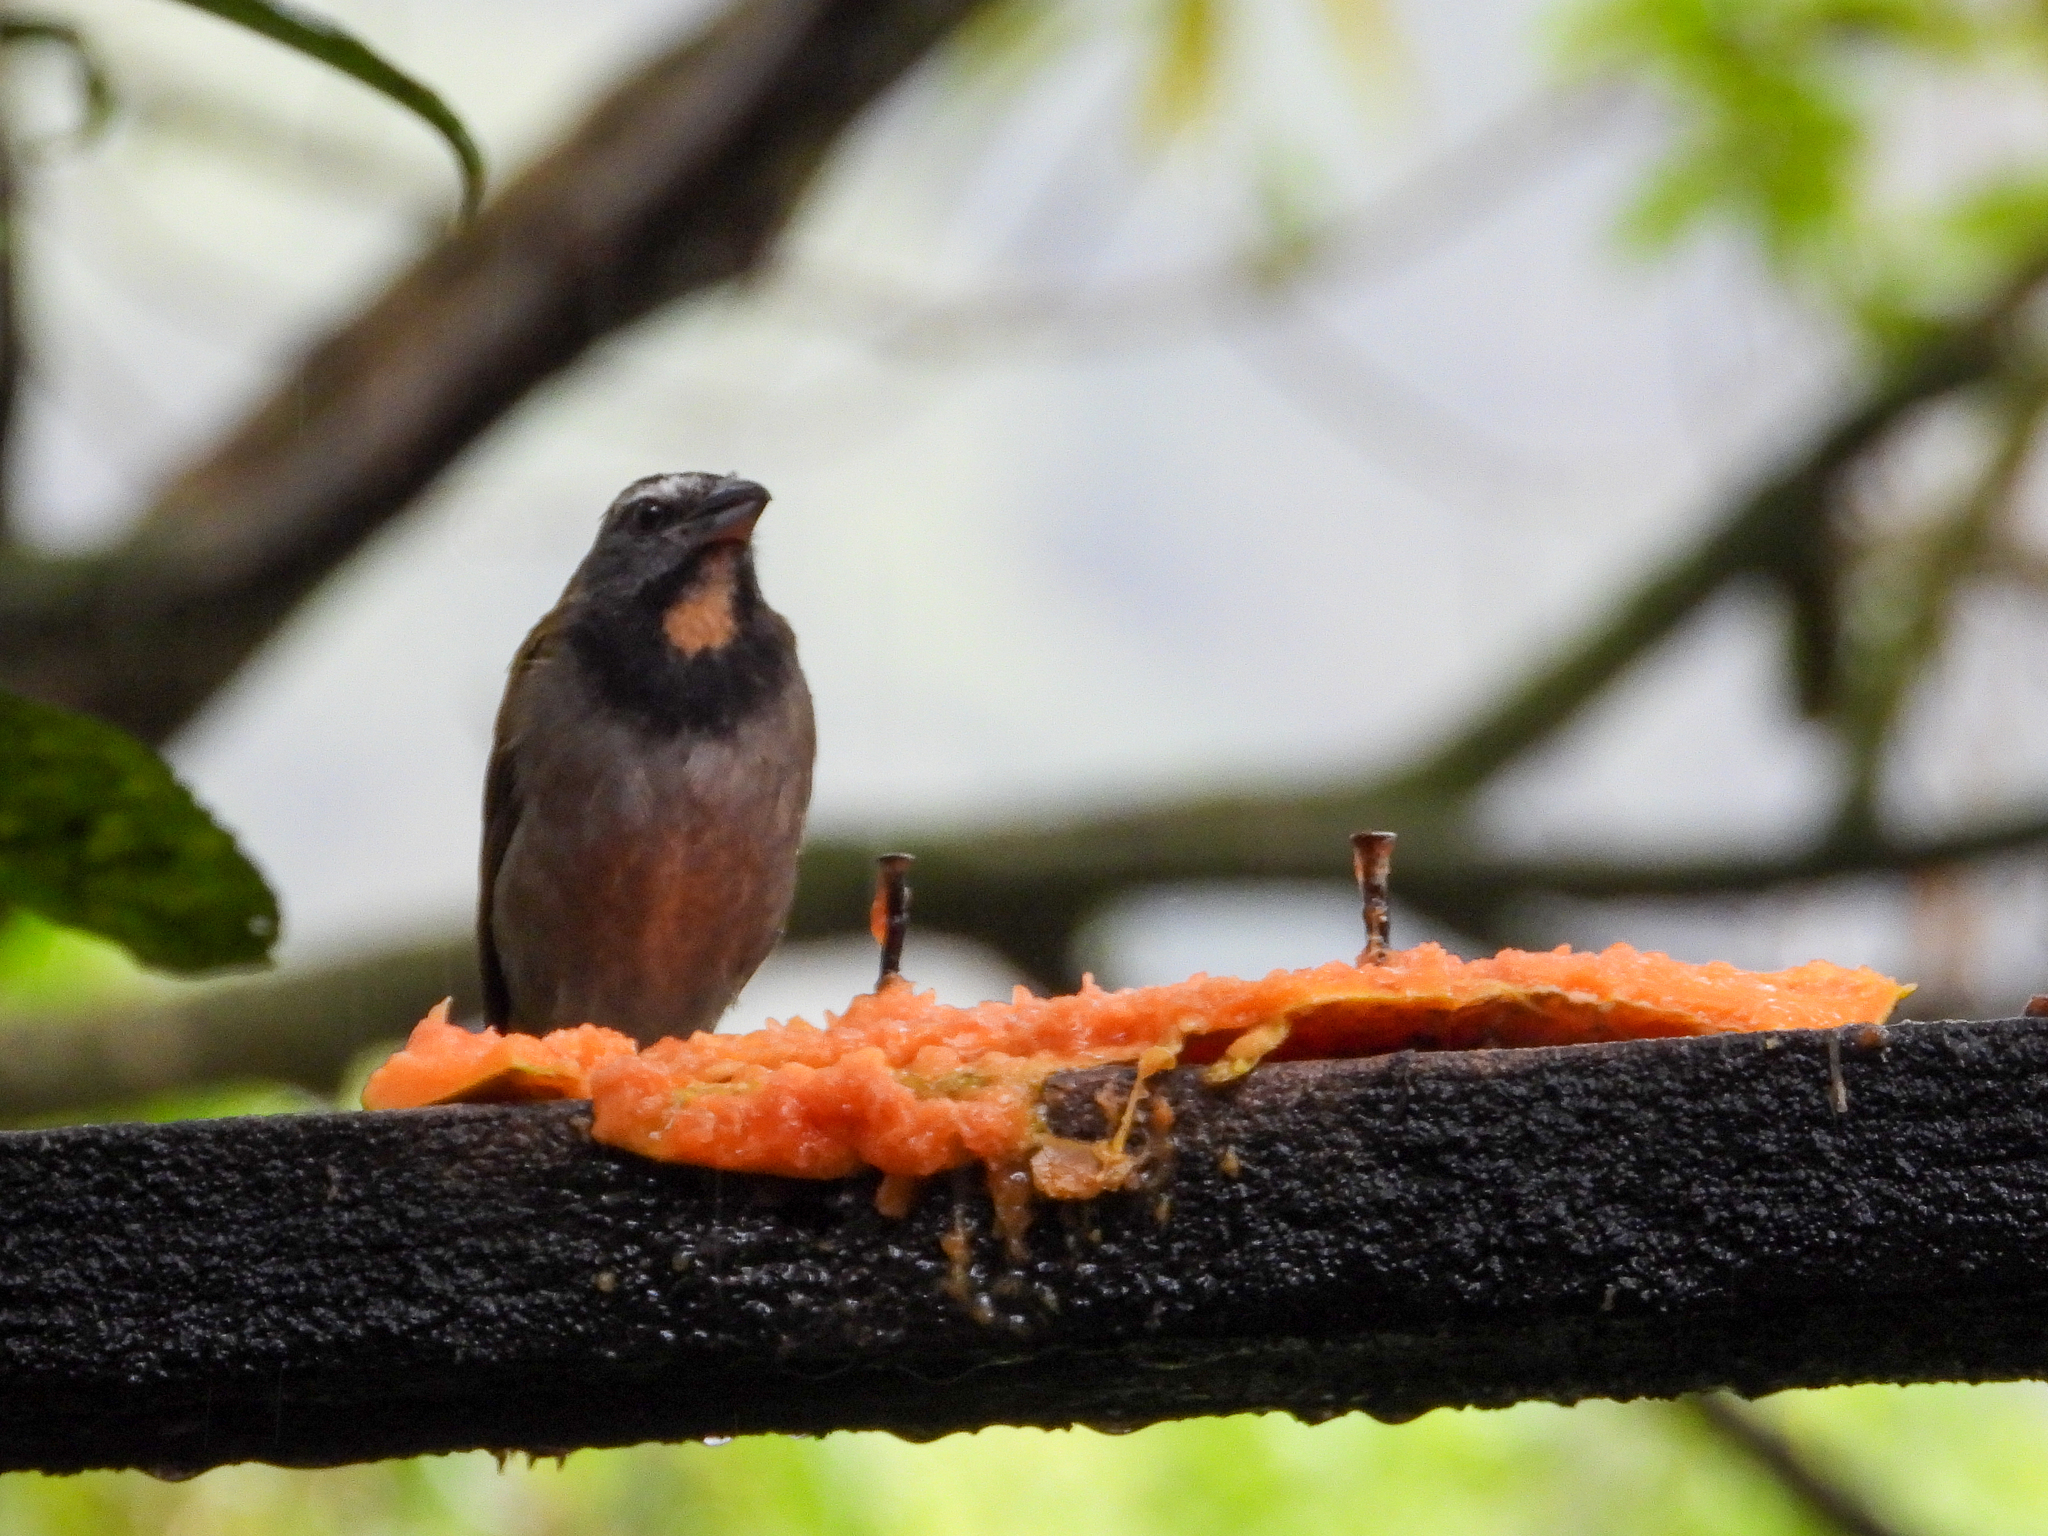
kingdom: Animalia
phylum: Chordata
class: Aves
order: Passeriformes
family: Thraupidae
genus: Saltator
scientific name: Saltator maximus
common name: Buff-throated saltator
